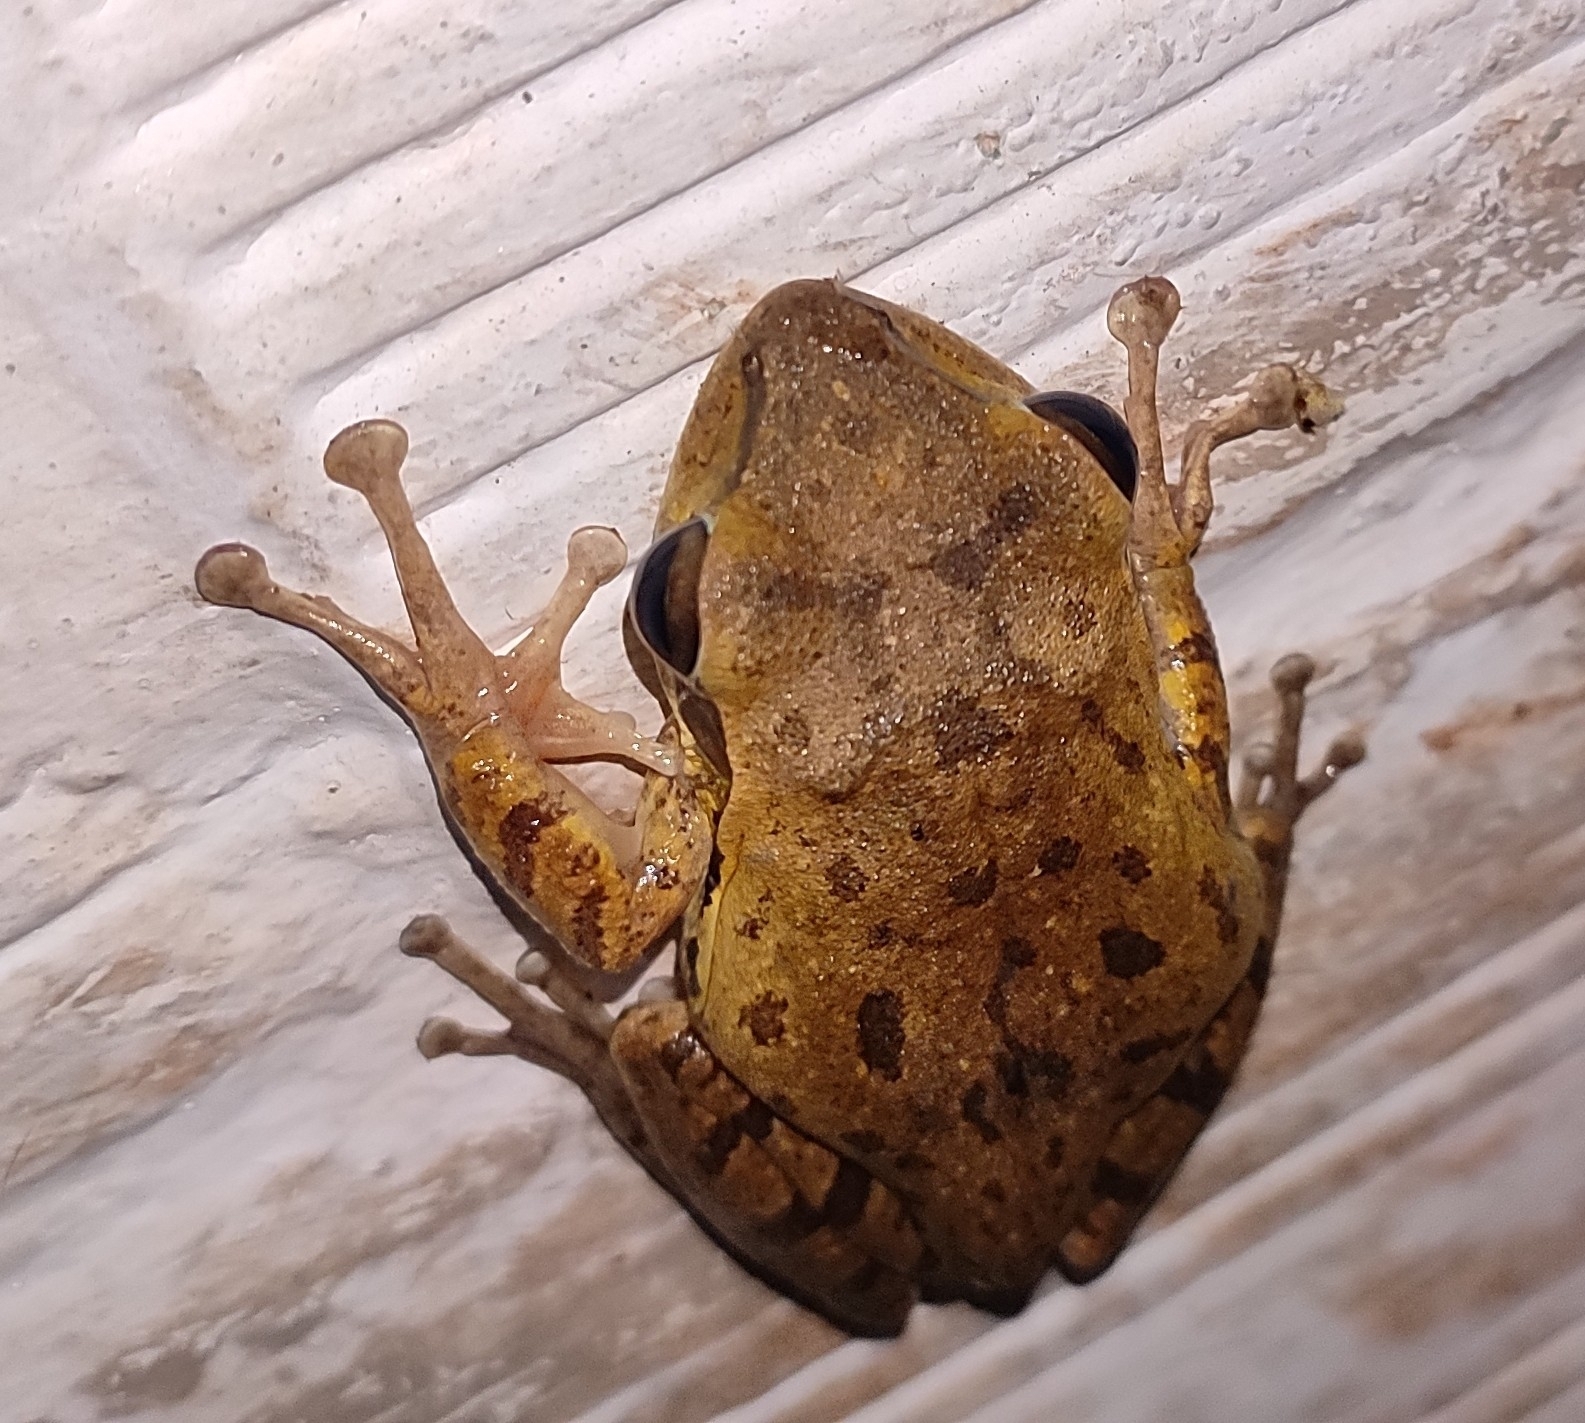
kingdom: Animalia
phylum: Chordata
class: Amphibia
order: Anura
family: Rhacophoridae
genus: Polypedates
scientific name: Polypedates maculatus
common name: Himalayan tree frog
